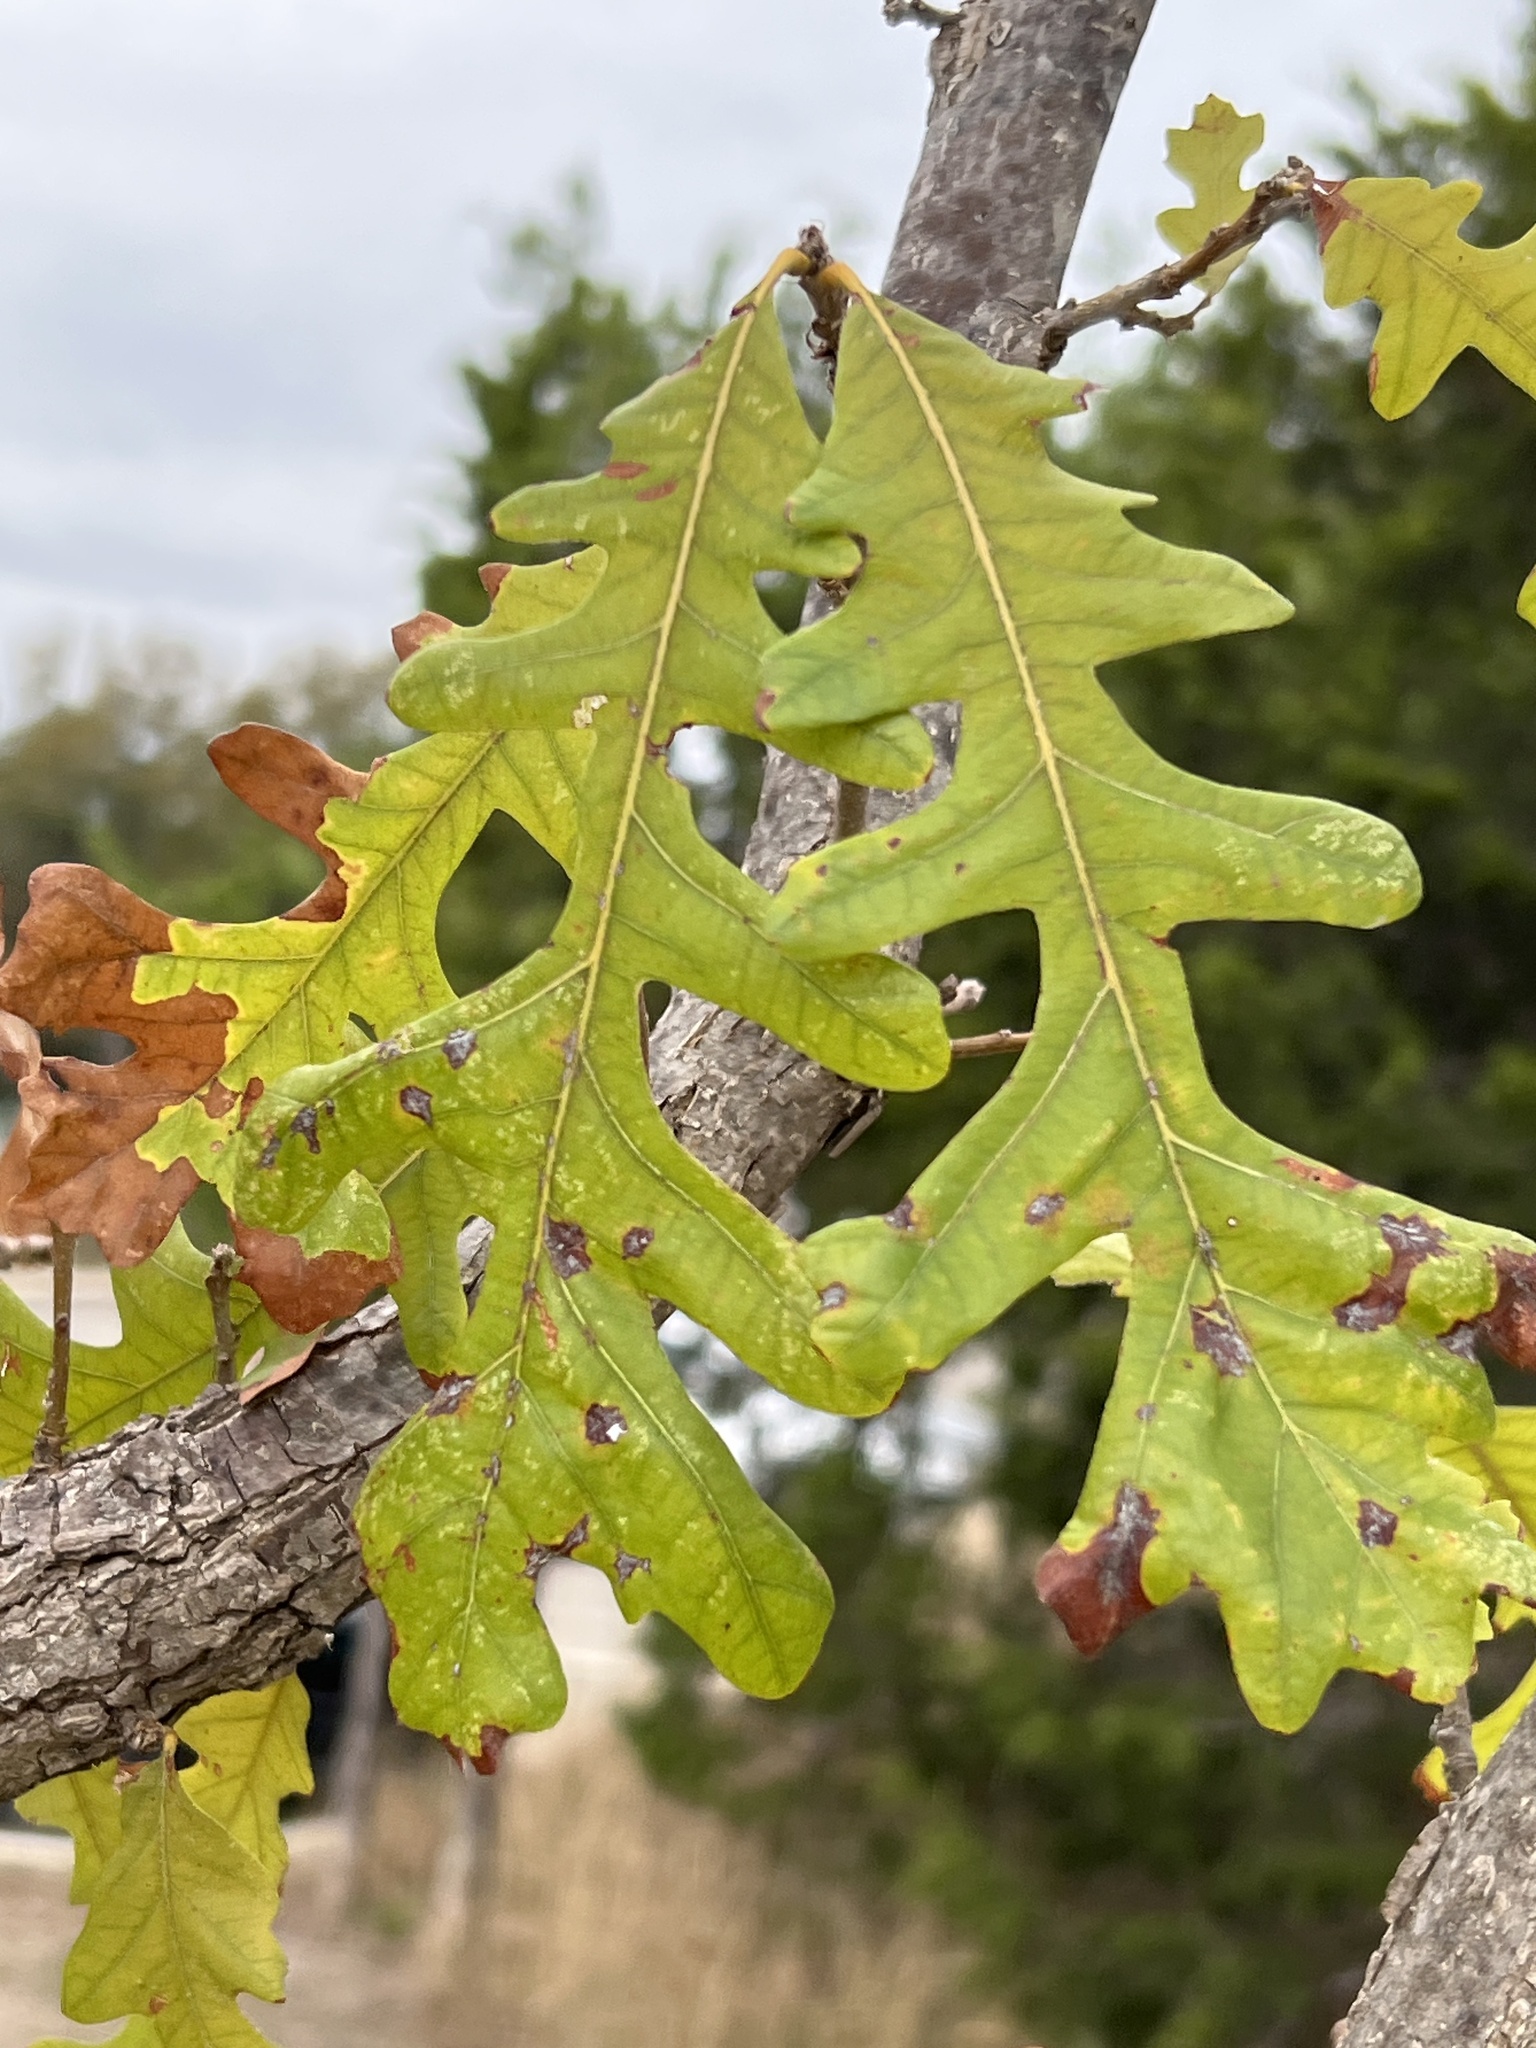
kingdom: Plantae
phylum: Tracheophyta
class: Magnoliopsida
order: Fagales
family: Fagaceae
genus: Quercus
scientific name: Quercus macrocarpa
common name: Bur oak
